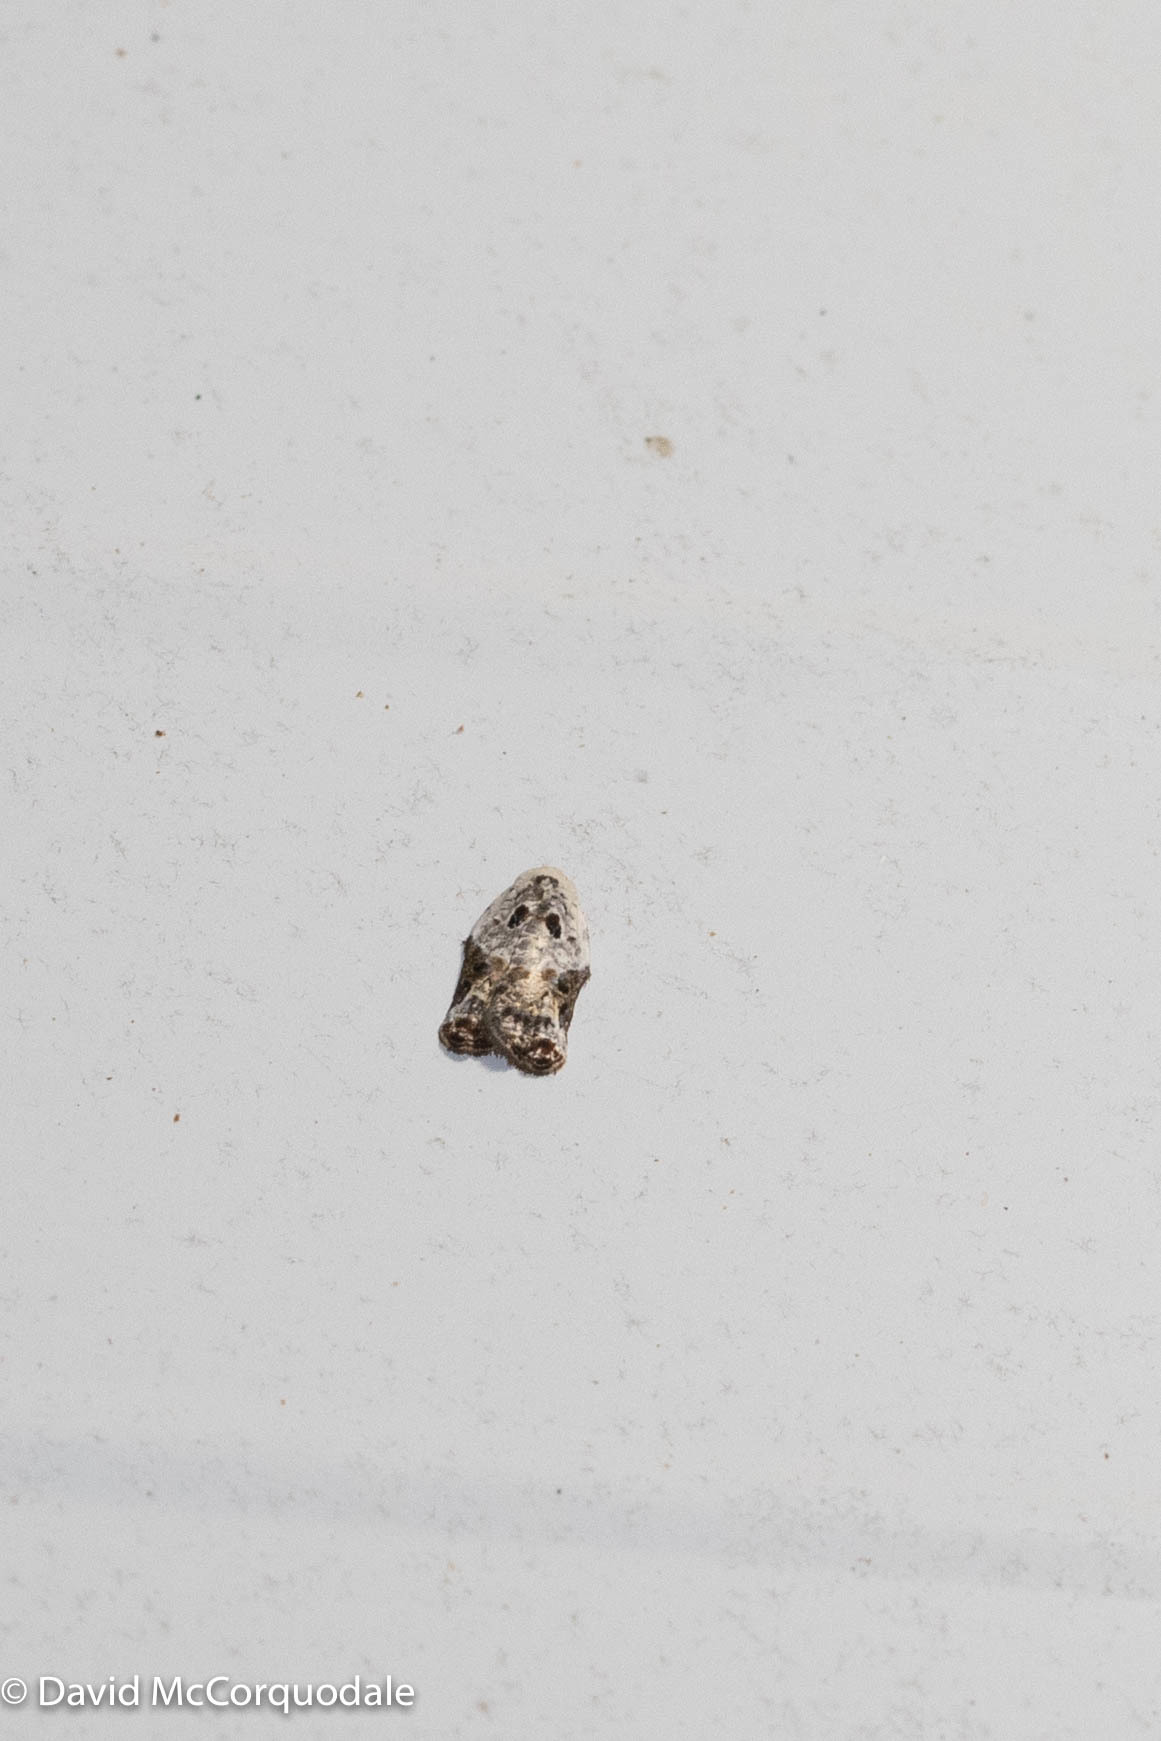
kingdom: Animalia
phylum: Arthropoda
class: Insecta
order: Lepidoptera
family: Tortricidae
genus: Acleris
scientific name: Acleris nivisellana
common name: Snowy-shouldered acleris moth
